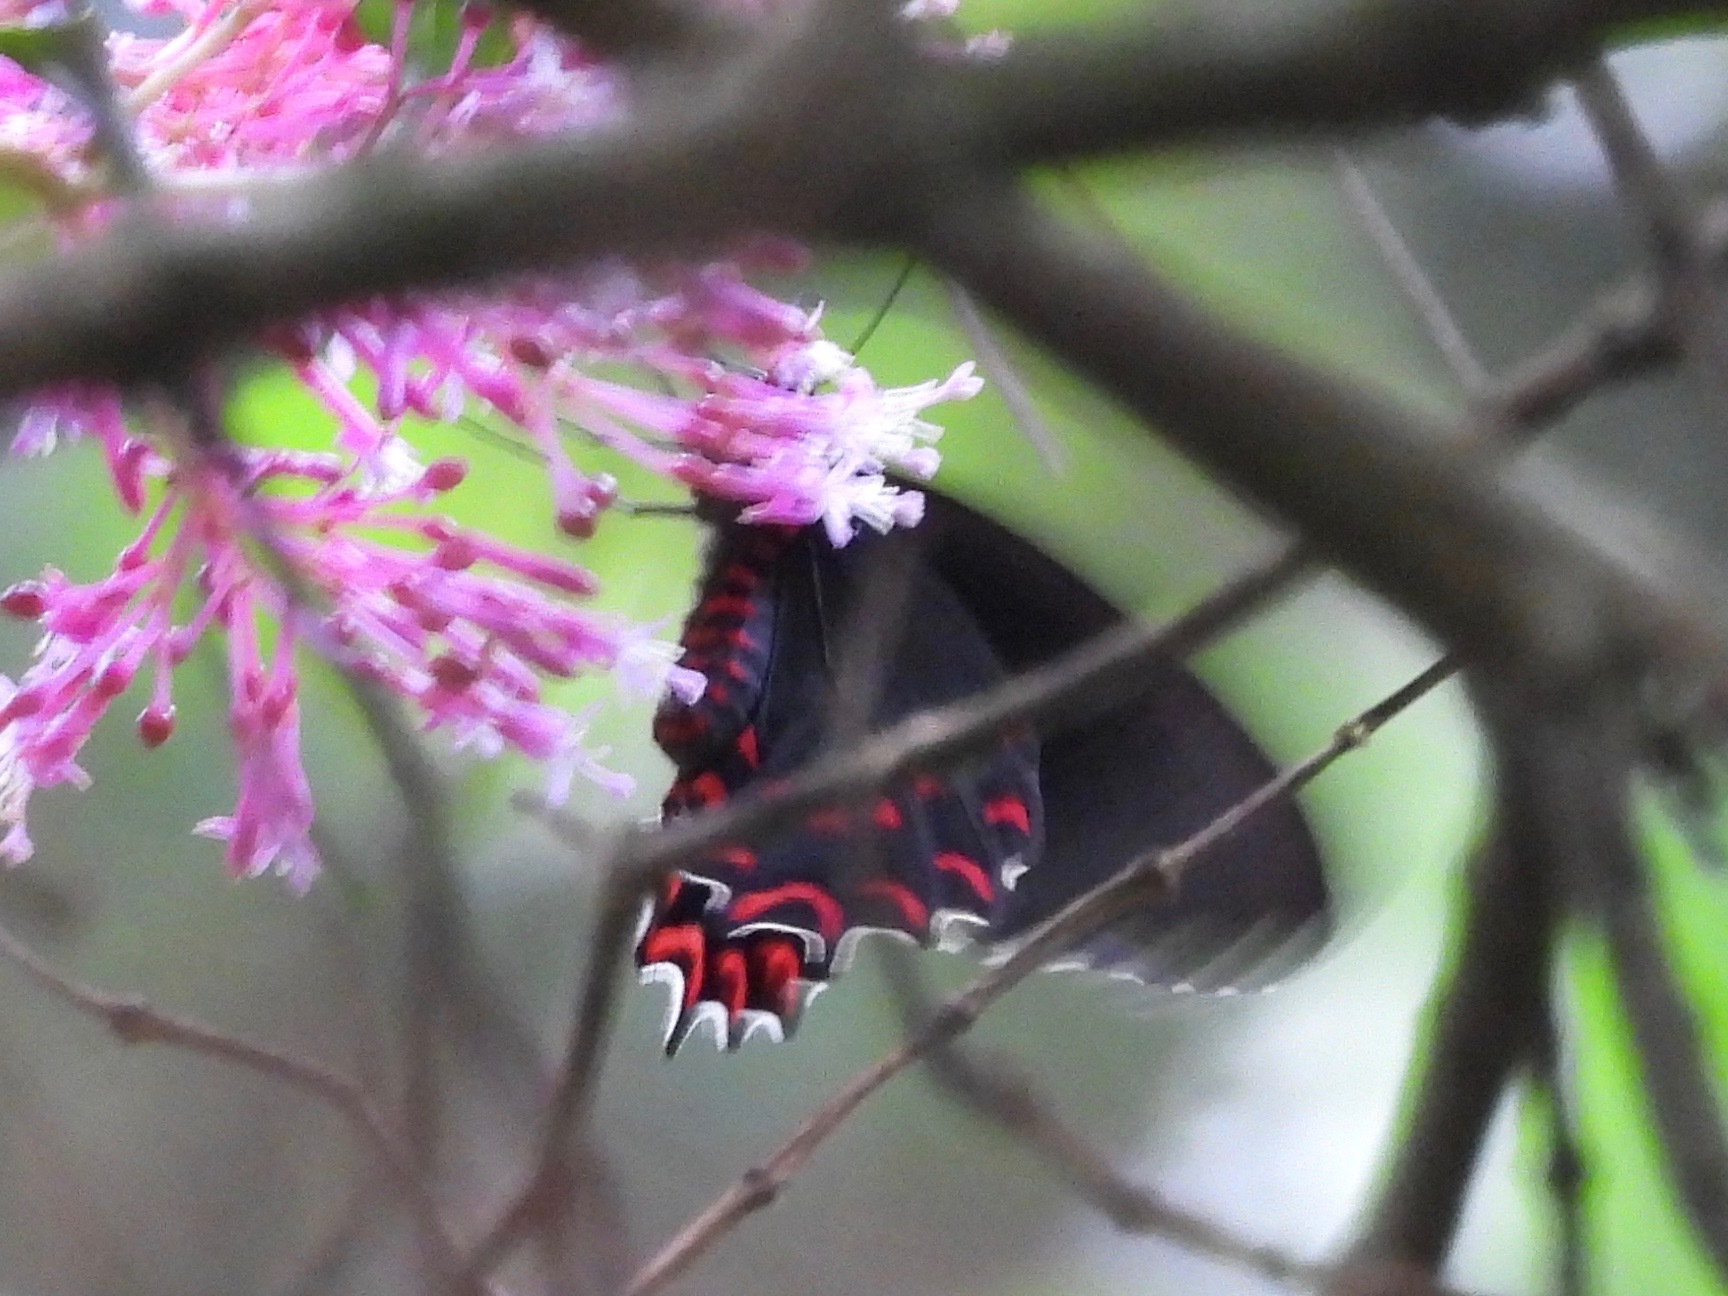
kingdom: Animalia
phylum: Arthropoda
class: Insecta
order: Lepidoptera
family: Papilionidae
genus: Parides
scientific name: Parides photinus
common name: Pink-spotted cattleheart
